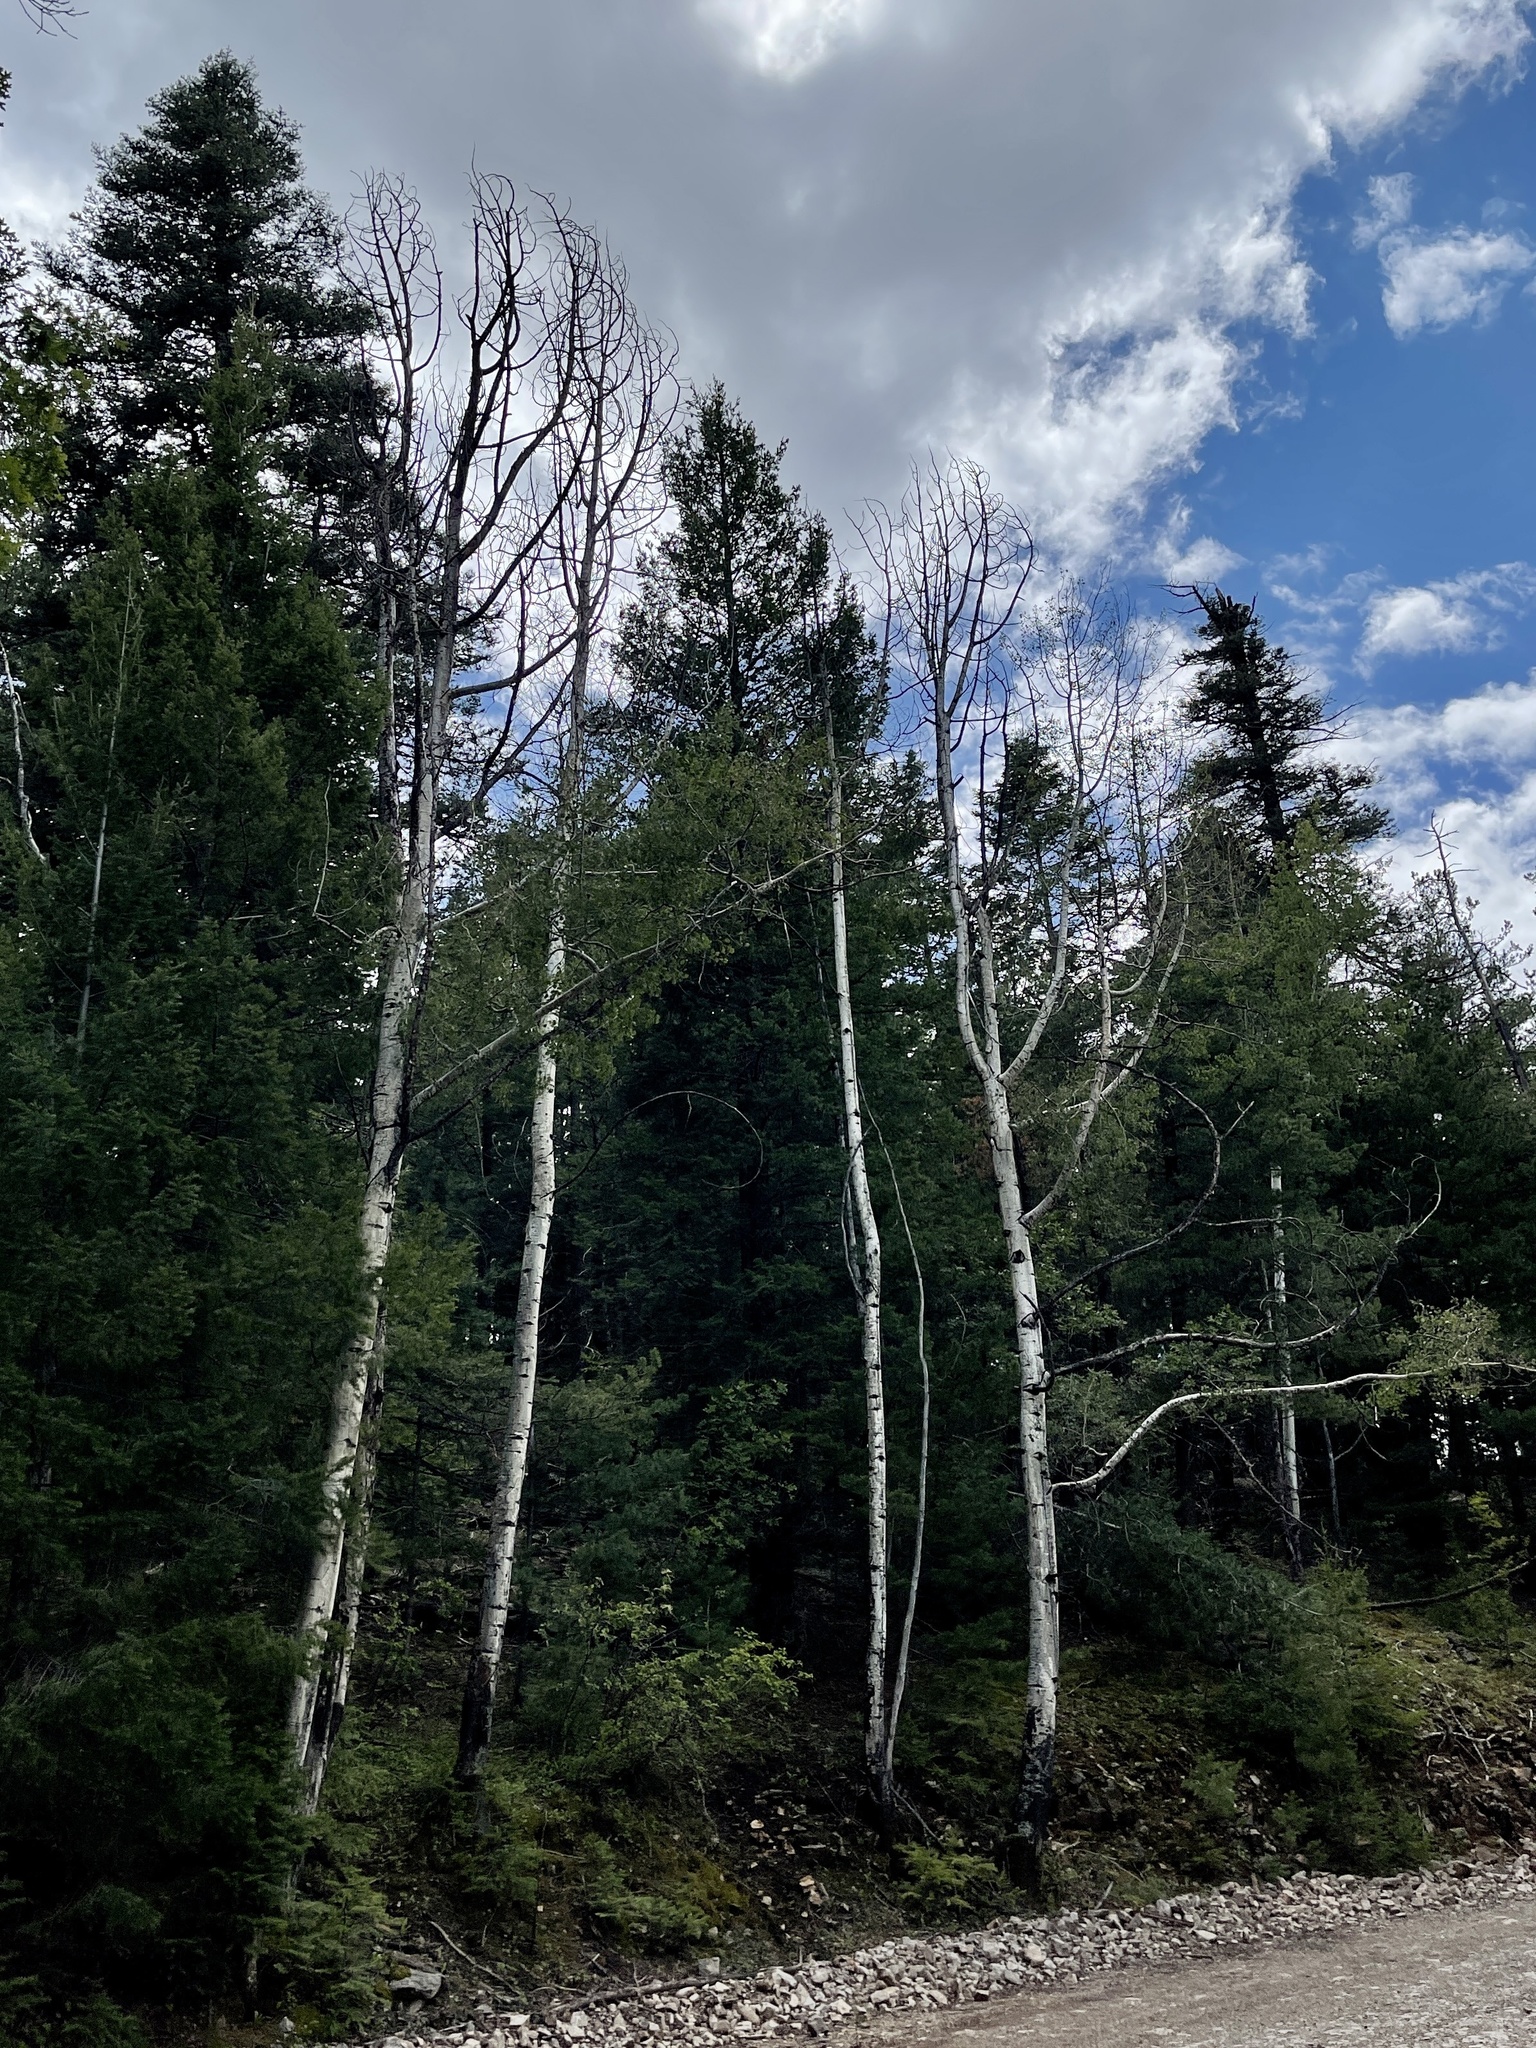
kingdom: Plantae
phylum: Tracheophyta
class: Magnoliopsida
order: Malpighiales
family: Salicaceae
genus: Populus
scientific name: Populus tremuloides
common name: Quaking aspen
